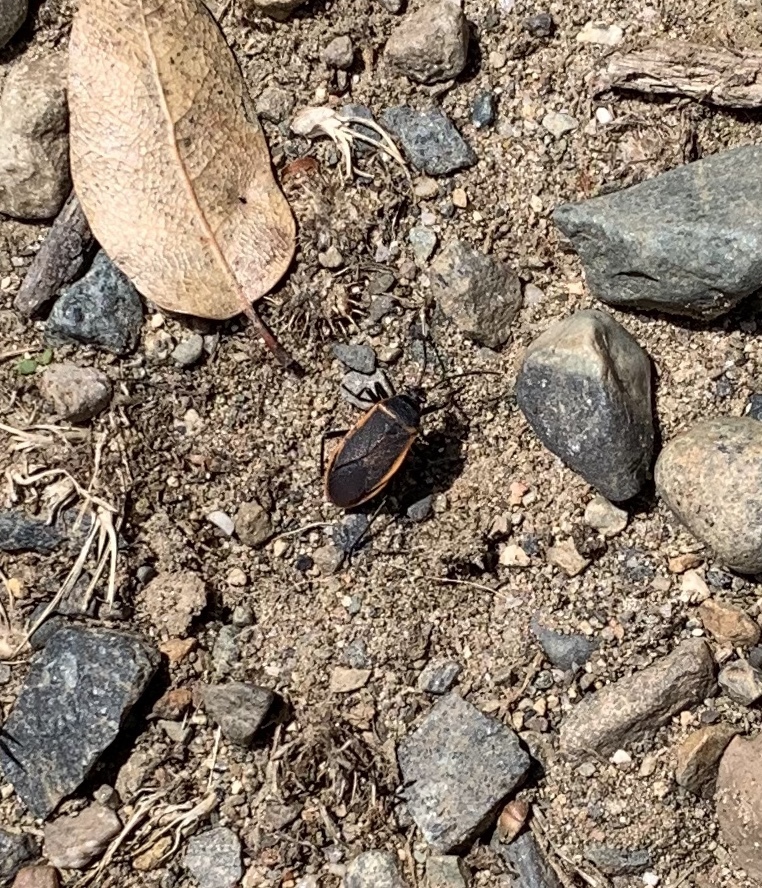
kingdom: Animalia
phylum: Arthropoda
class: Insecta
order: Hemiptera
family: Largidae
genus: Largus
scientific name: Largus californicus
